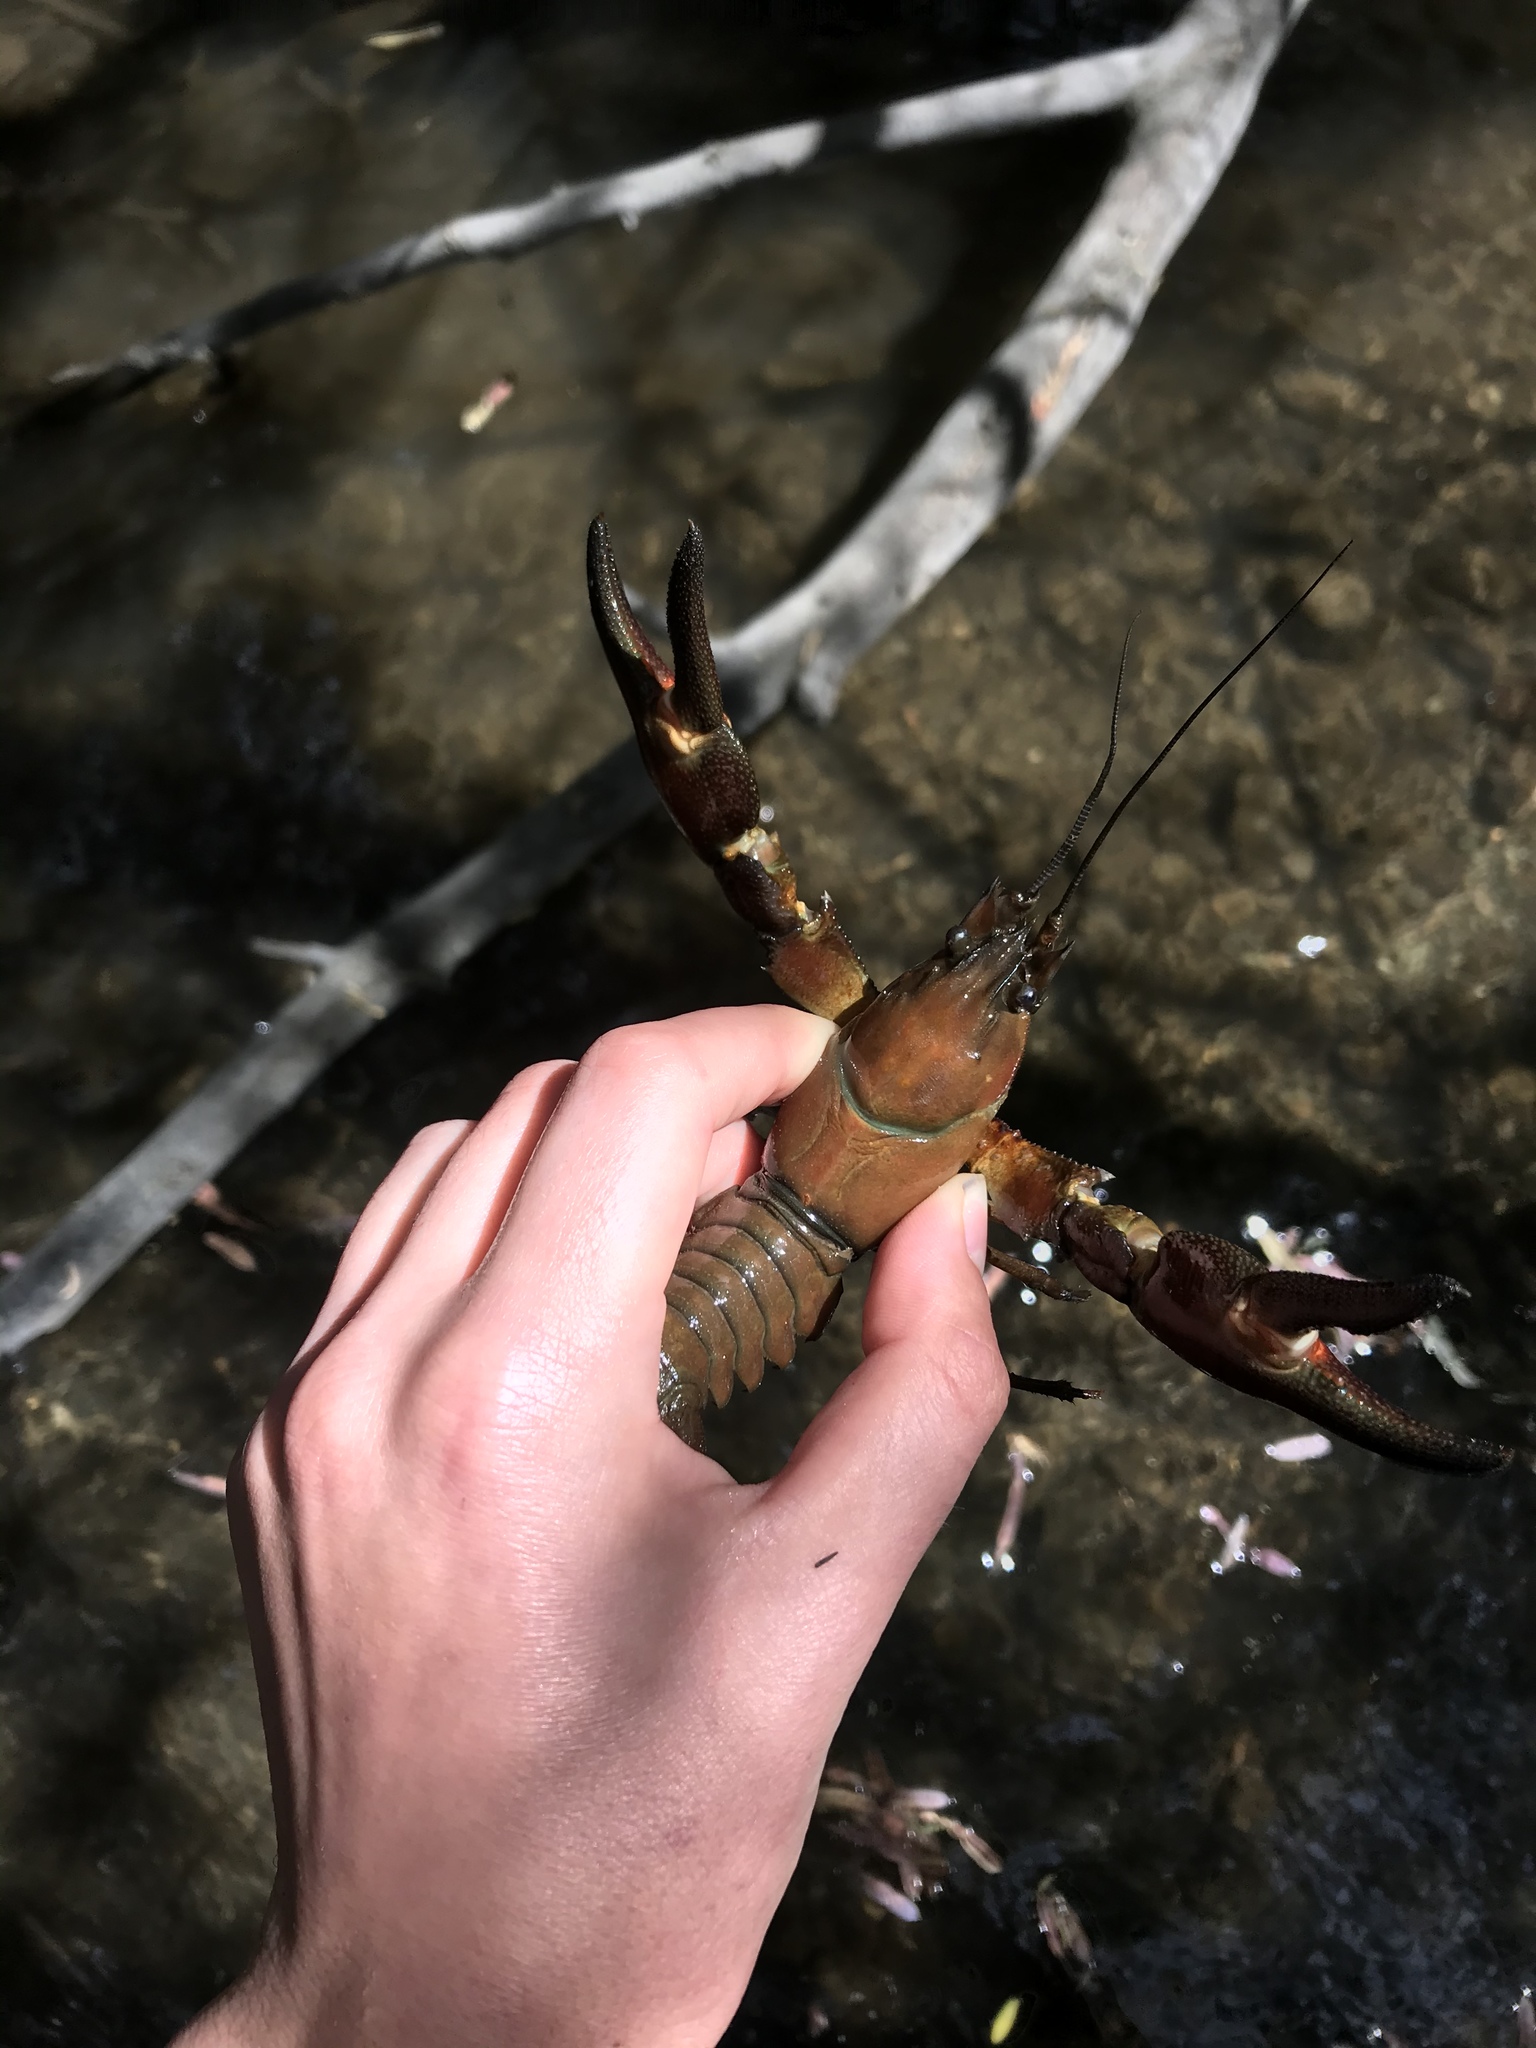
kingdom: Animalia
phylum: Arthropoda
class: Malacostraca
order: Decapoda
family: Astacidae
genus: Pacifastacus
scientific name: Pacifastacus leniusculus
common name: Signal crayfish
